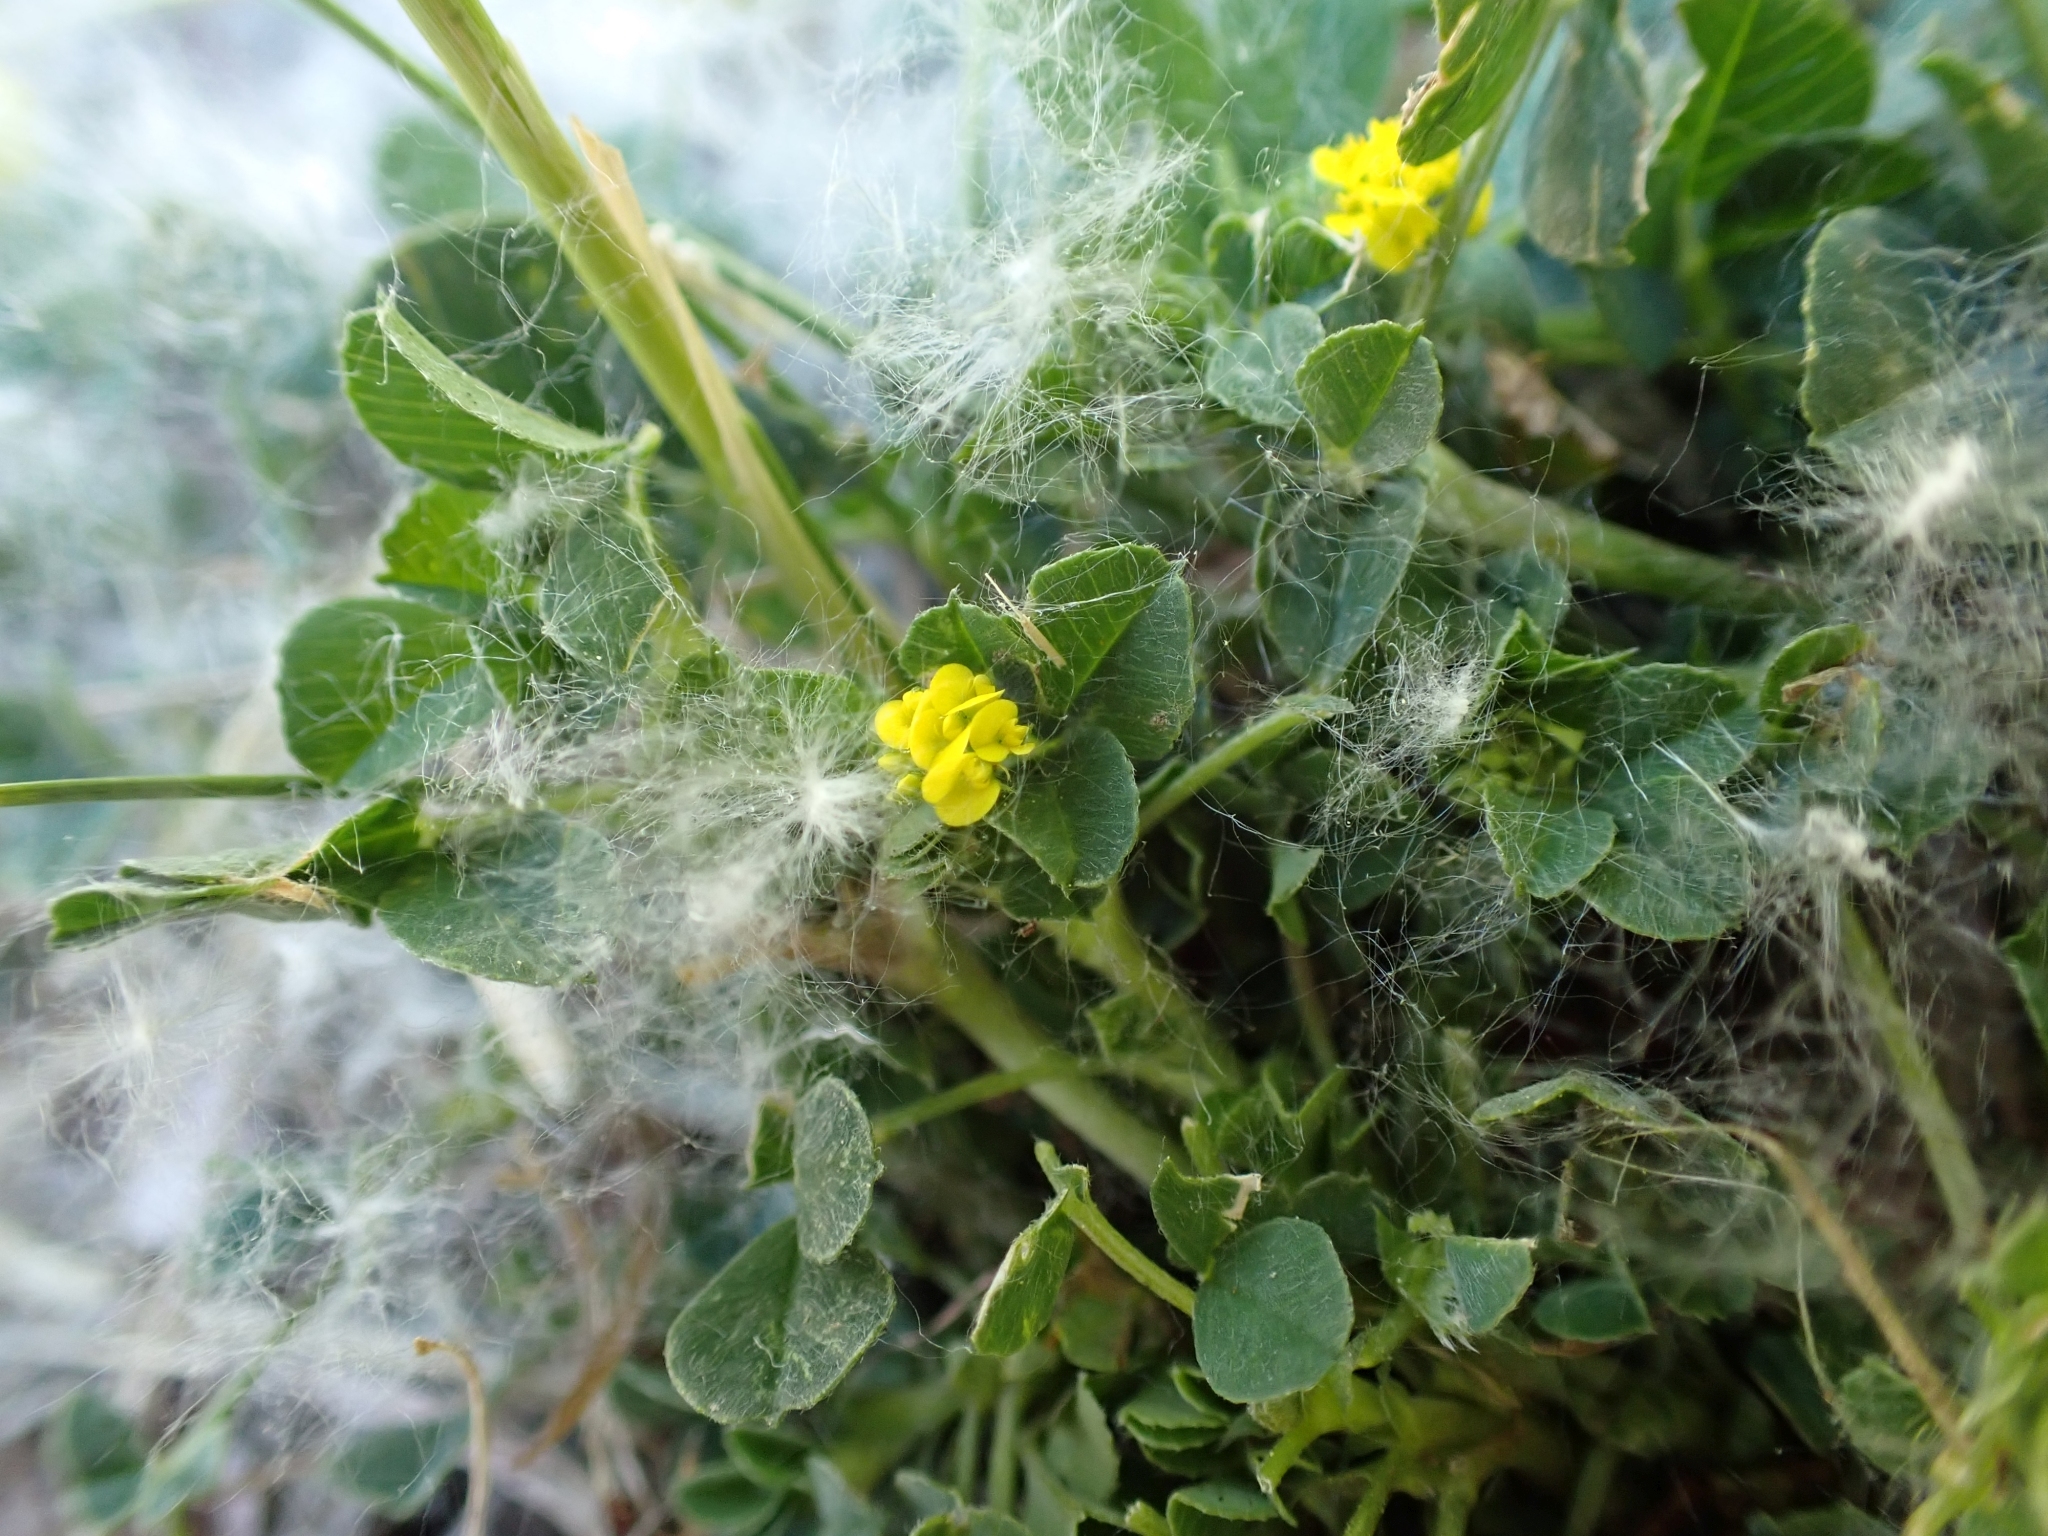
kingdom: Plantae
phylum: Tracheophyta
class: Magnoliopsida
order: Fabales
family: Fabaceae
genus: Medicago
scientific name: Medicago lupulina
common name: Black medick
